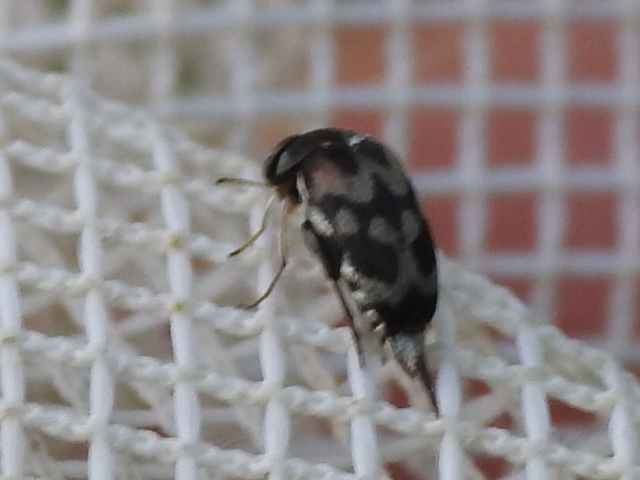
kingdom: Animalia
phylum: Arthropoda
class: Insecta
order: Coleoptera
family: Mordellidae
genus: Paramordellaria
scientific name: Paramordellaria carinata
